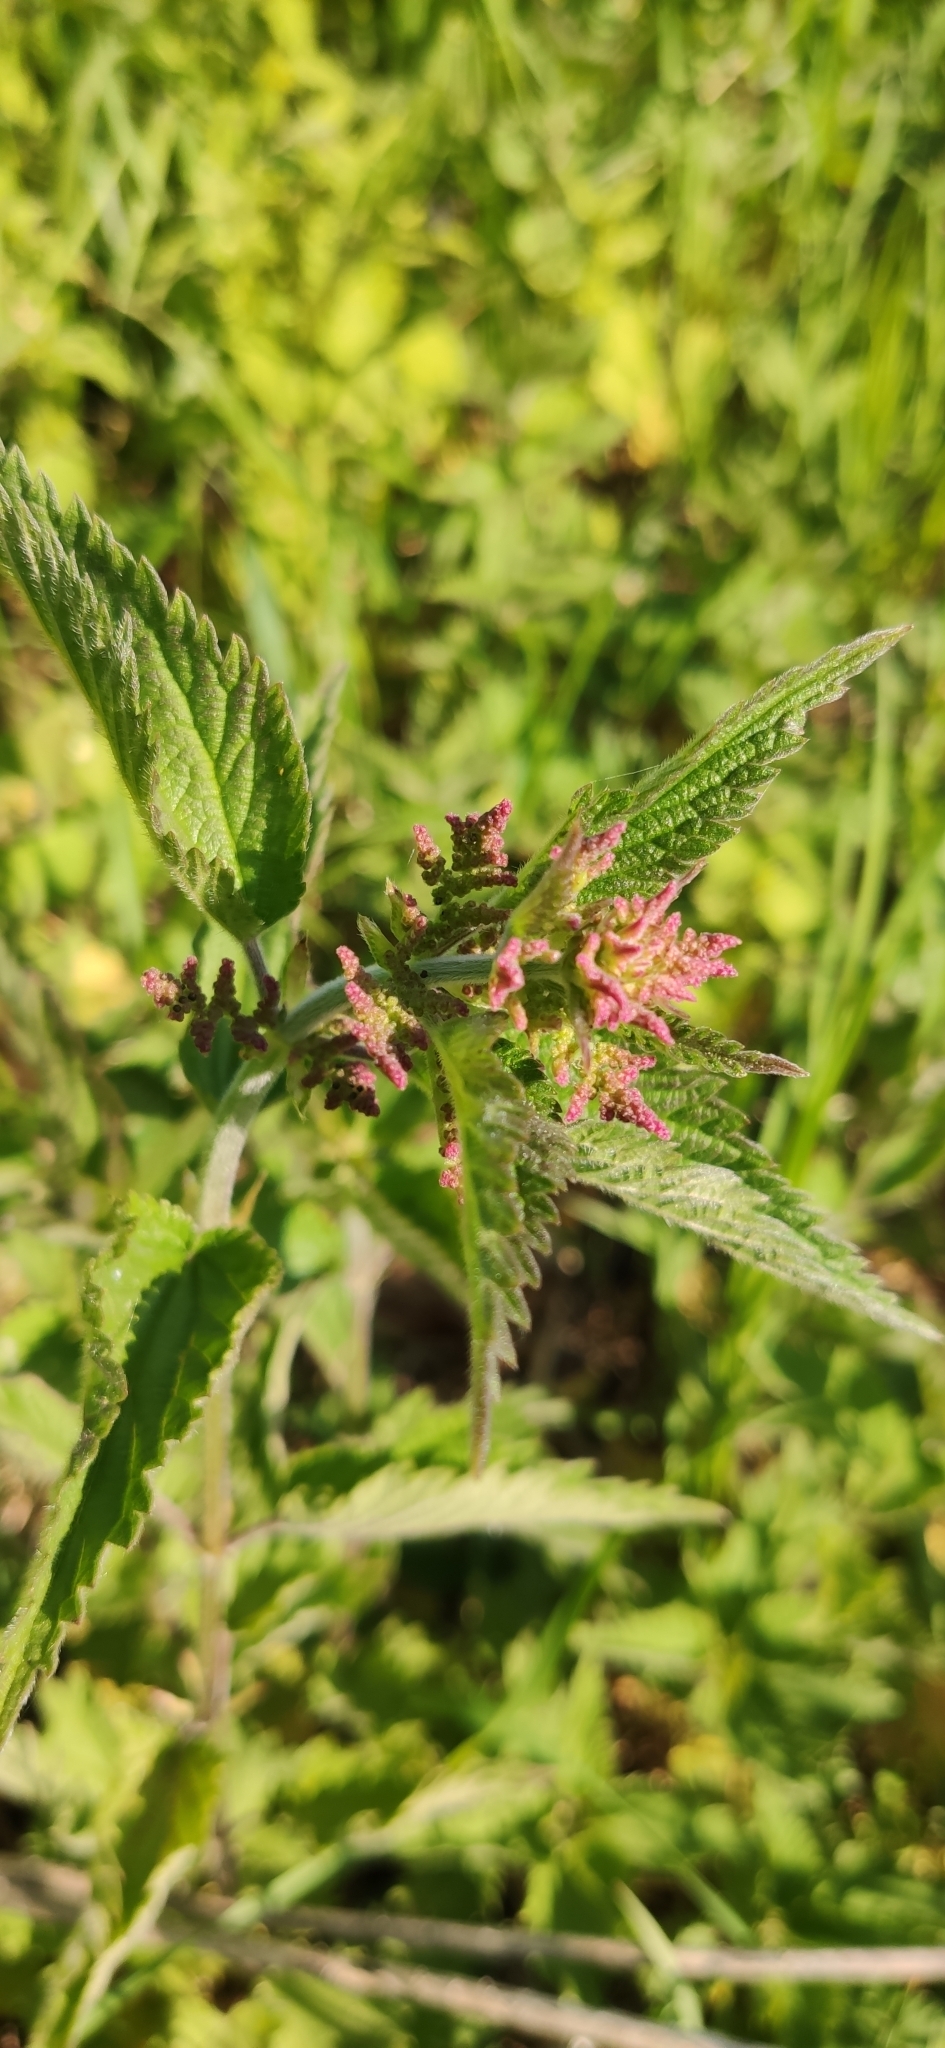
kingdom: Plantae
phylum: Tracheophyta
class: Magnoliopsida
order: Rosales
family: Urticaceae
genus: Urtica
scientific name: Urtica dioica
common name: Common nettle
